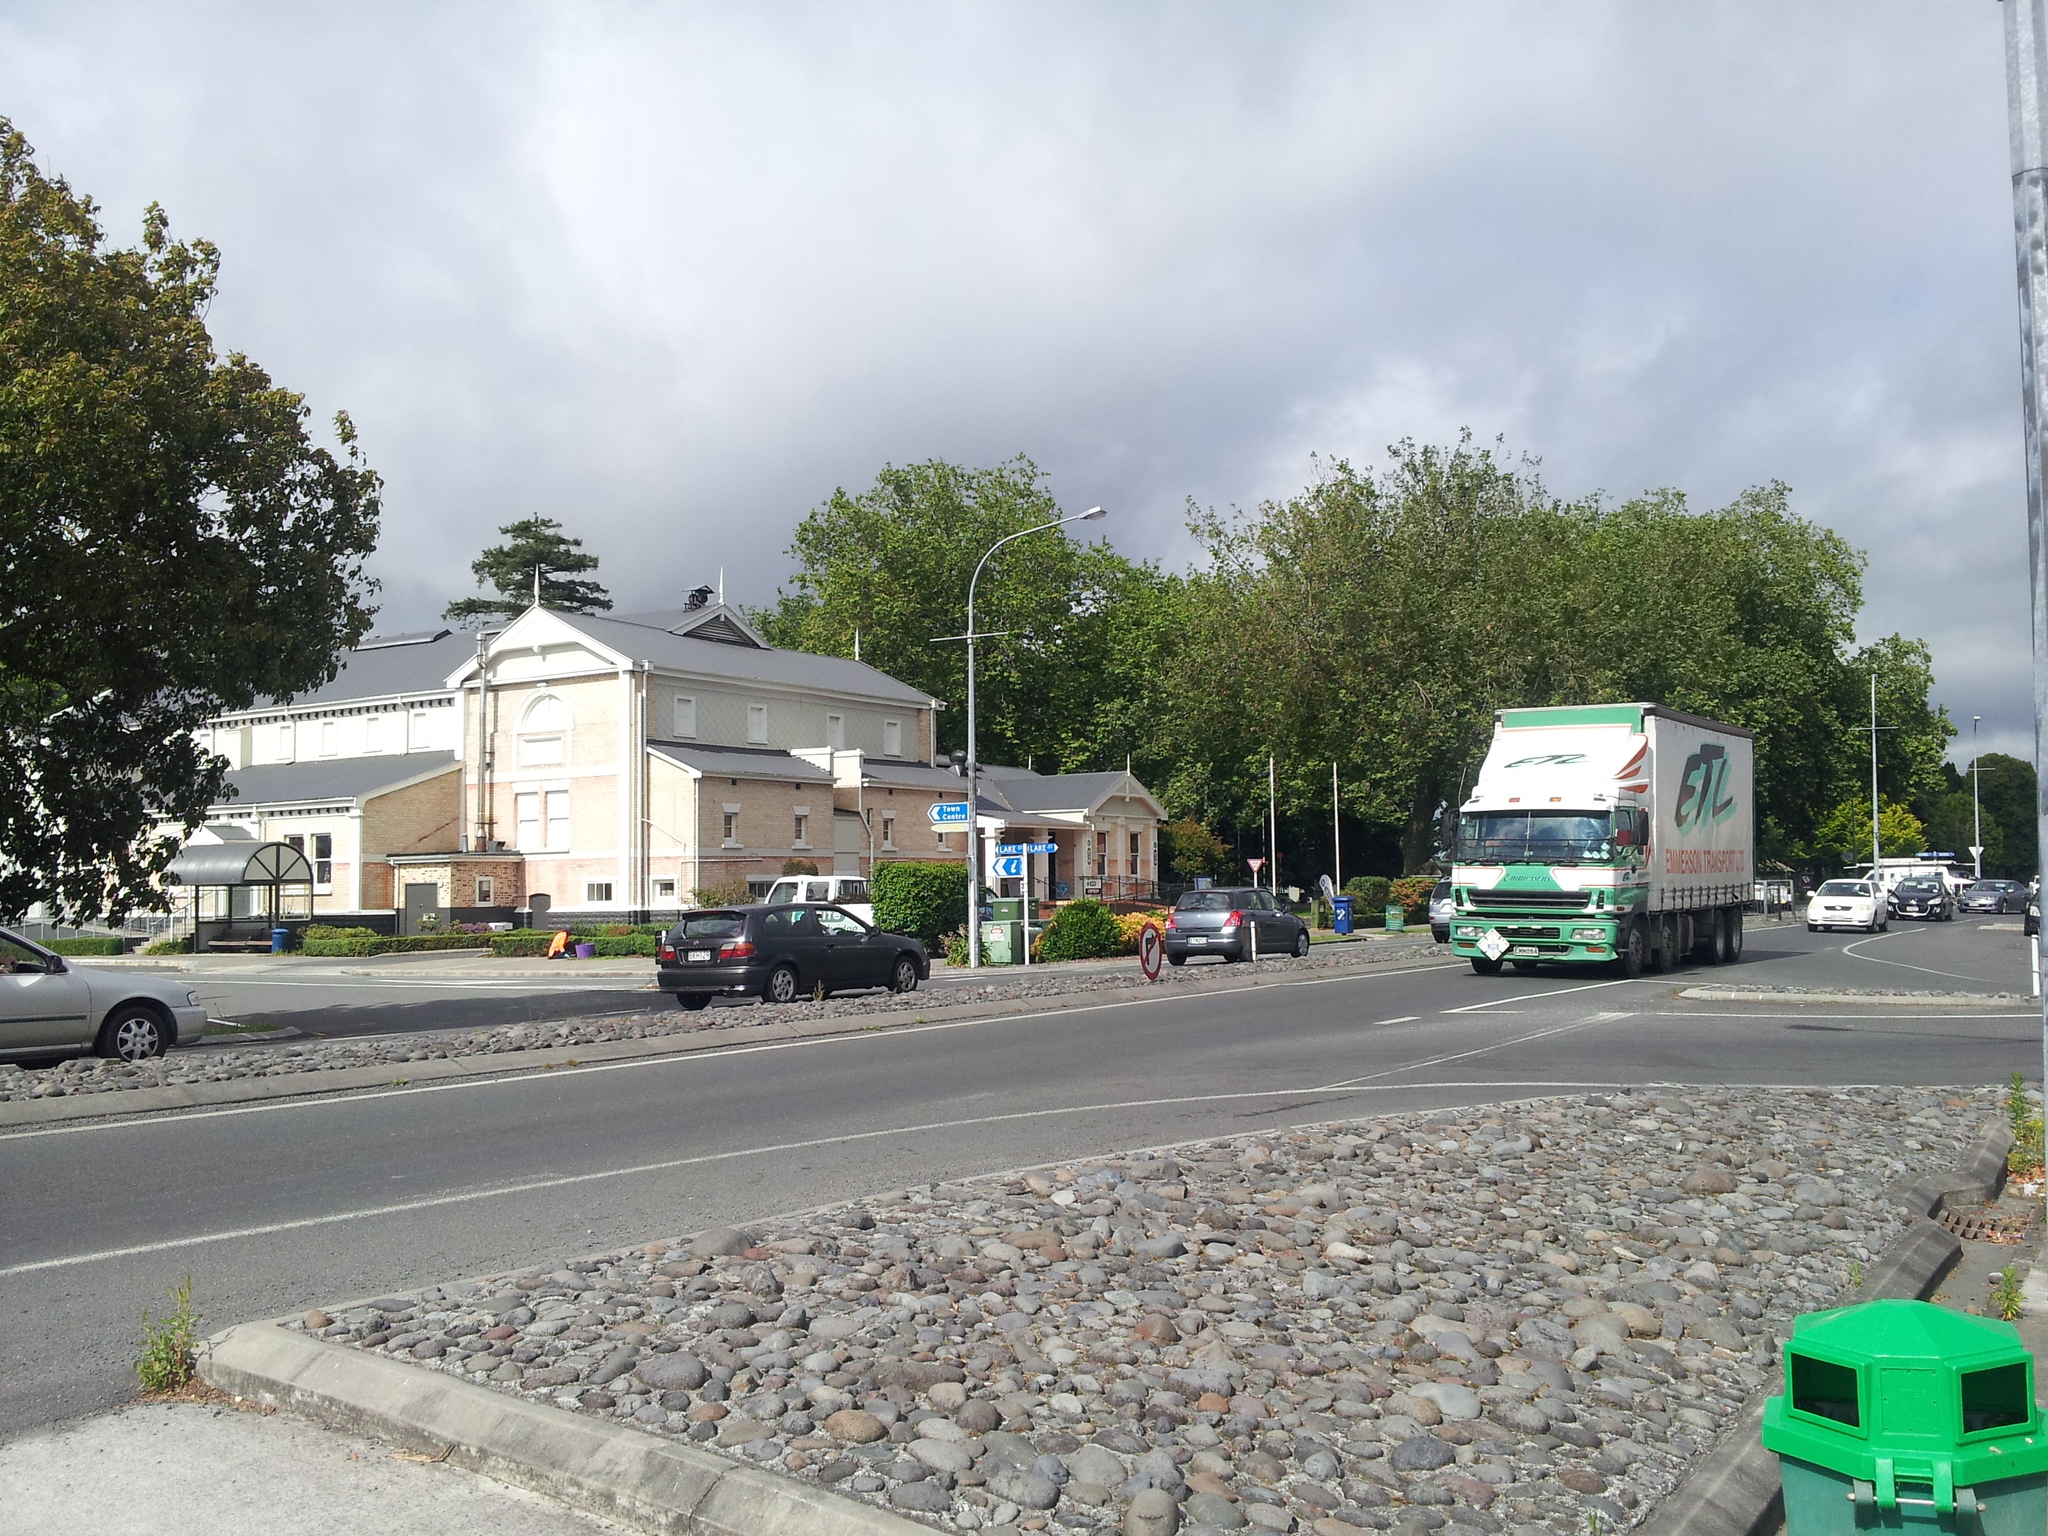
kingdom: Plantae
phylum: Tracheophyta
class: Magnoliopsida
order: Myrtales
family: Onagraceae
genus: Epilobium
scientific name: Epilobium hirtigerum
